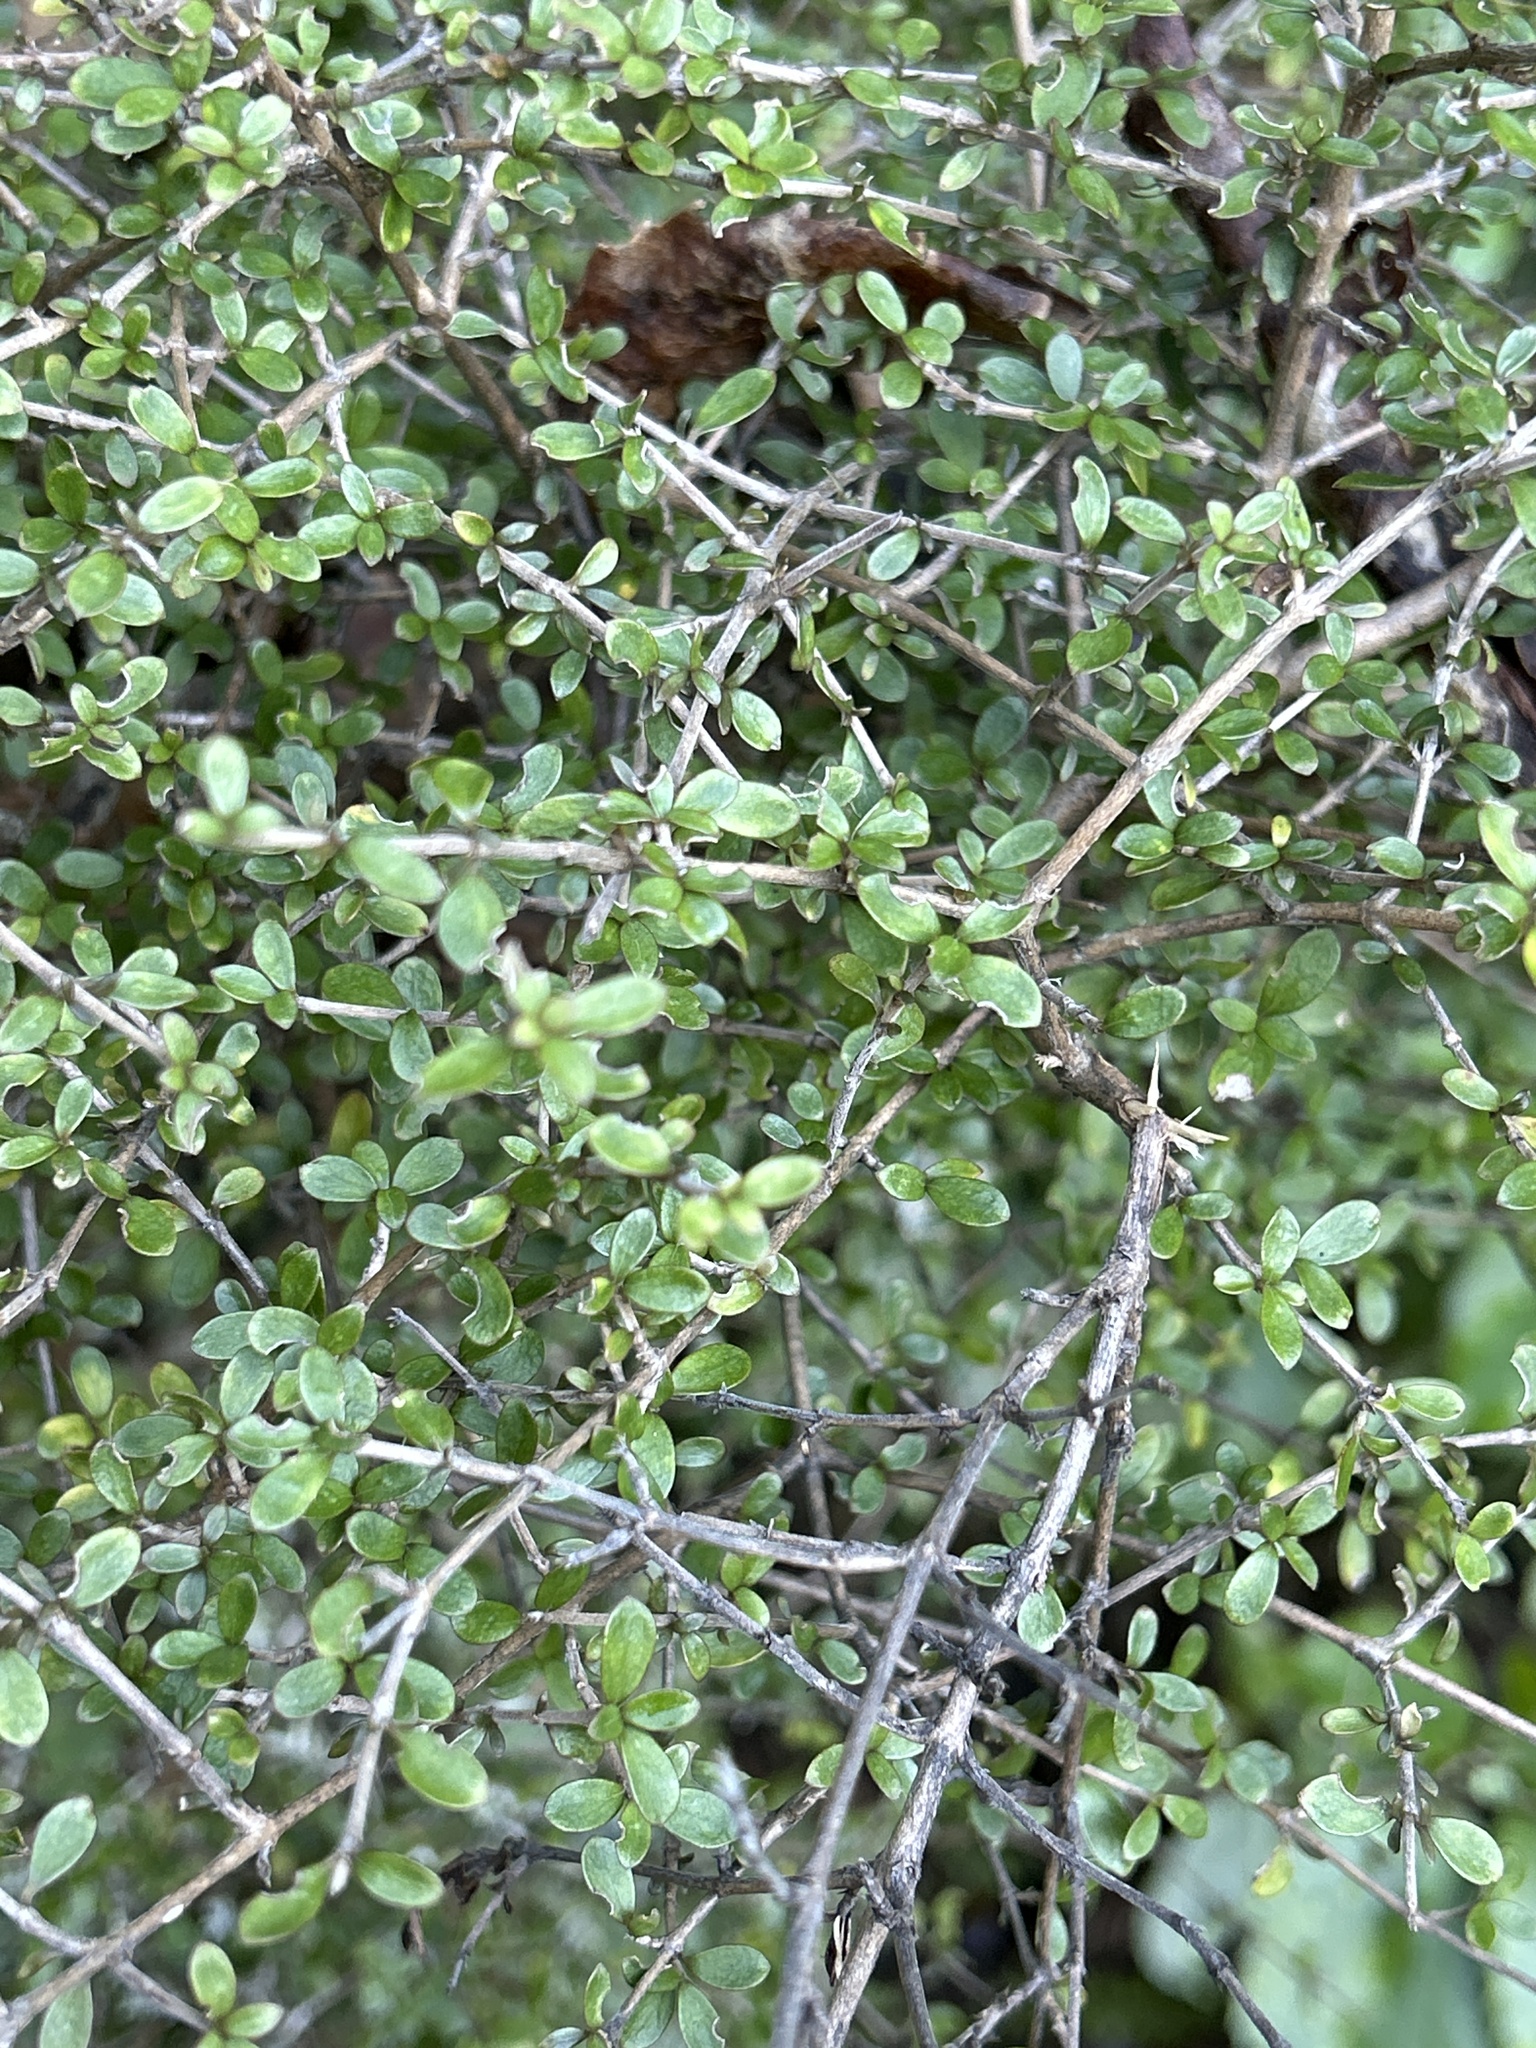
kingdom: Plantae
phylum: Tracheophyta
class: Magnoliopsida
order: Gentianales
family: Rubiaceae
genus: Coprosma
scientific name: Coprosma dumosa
